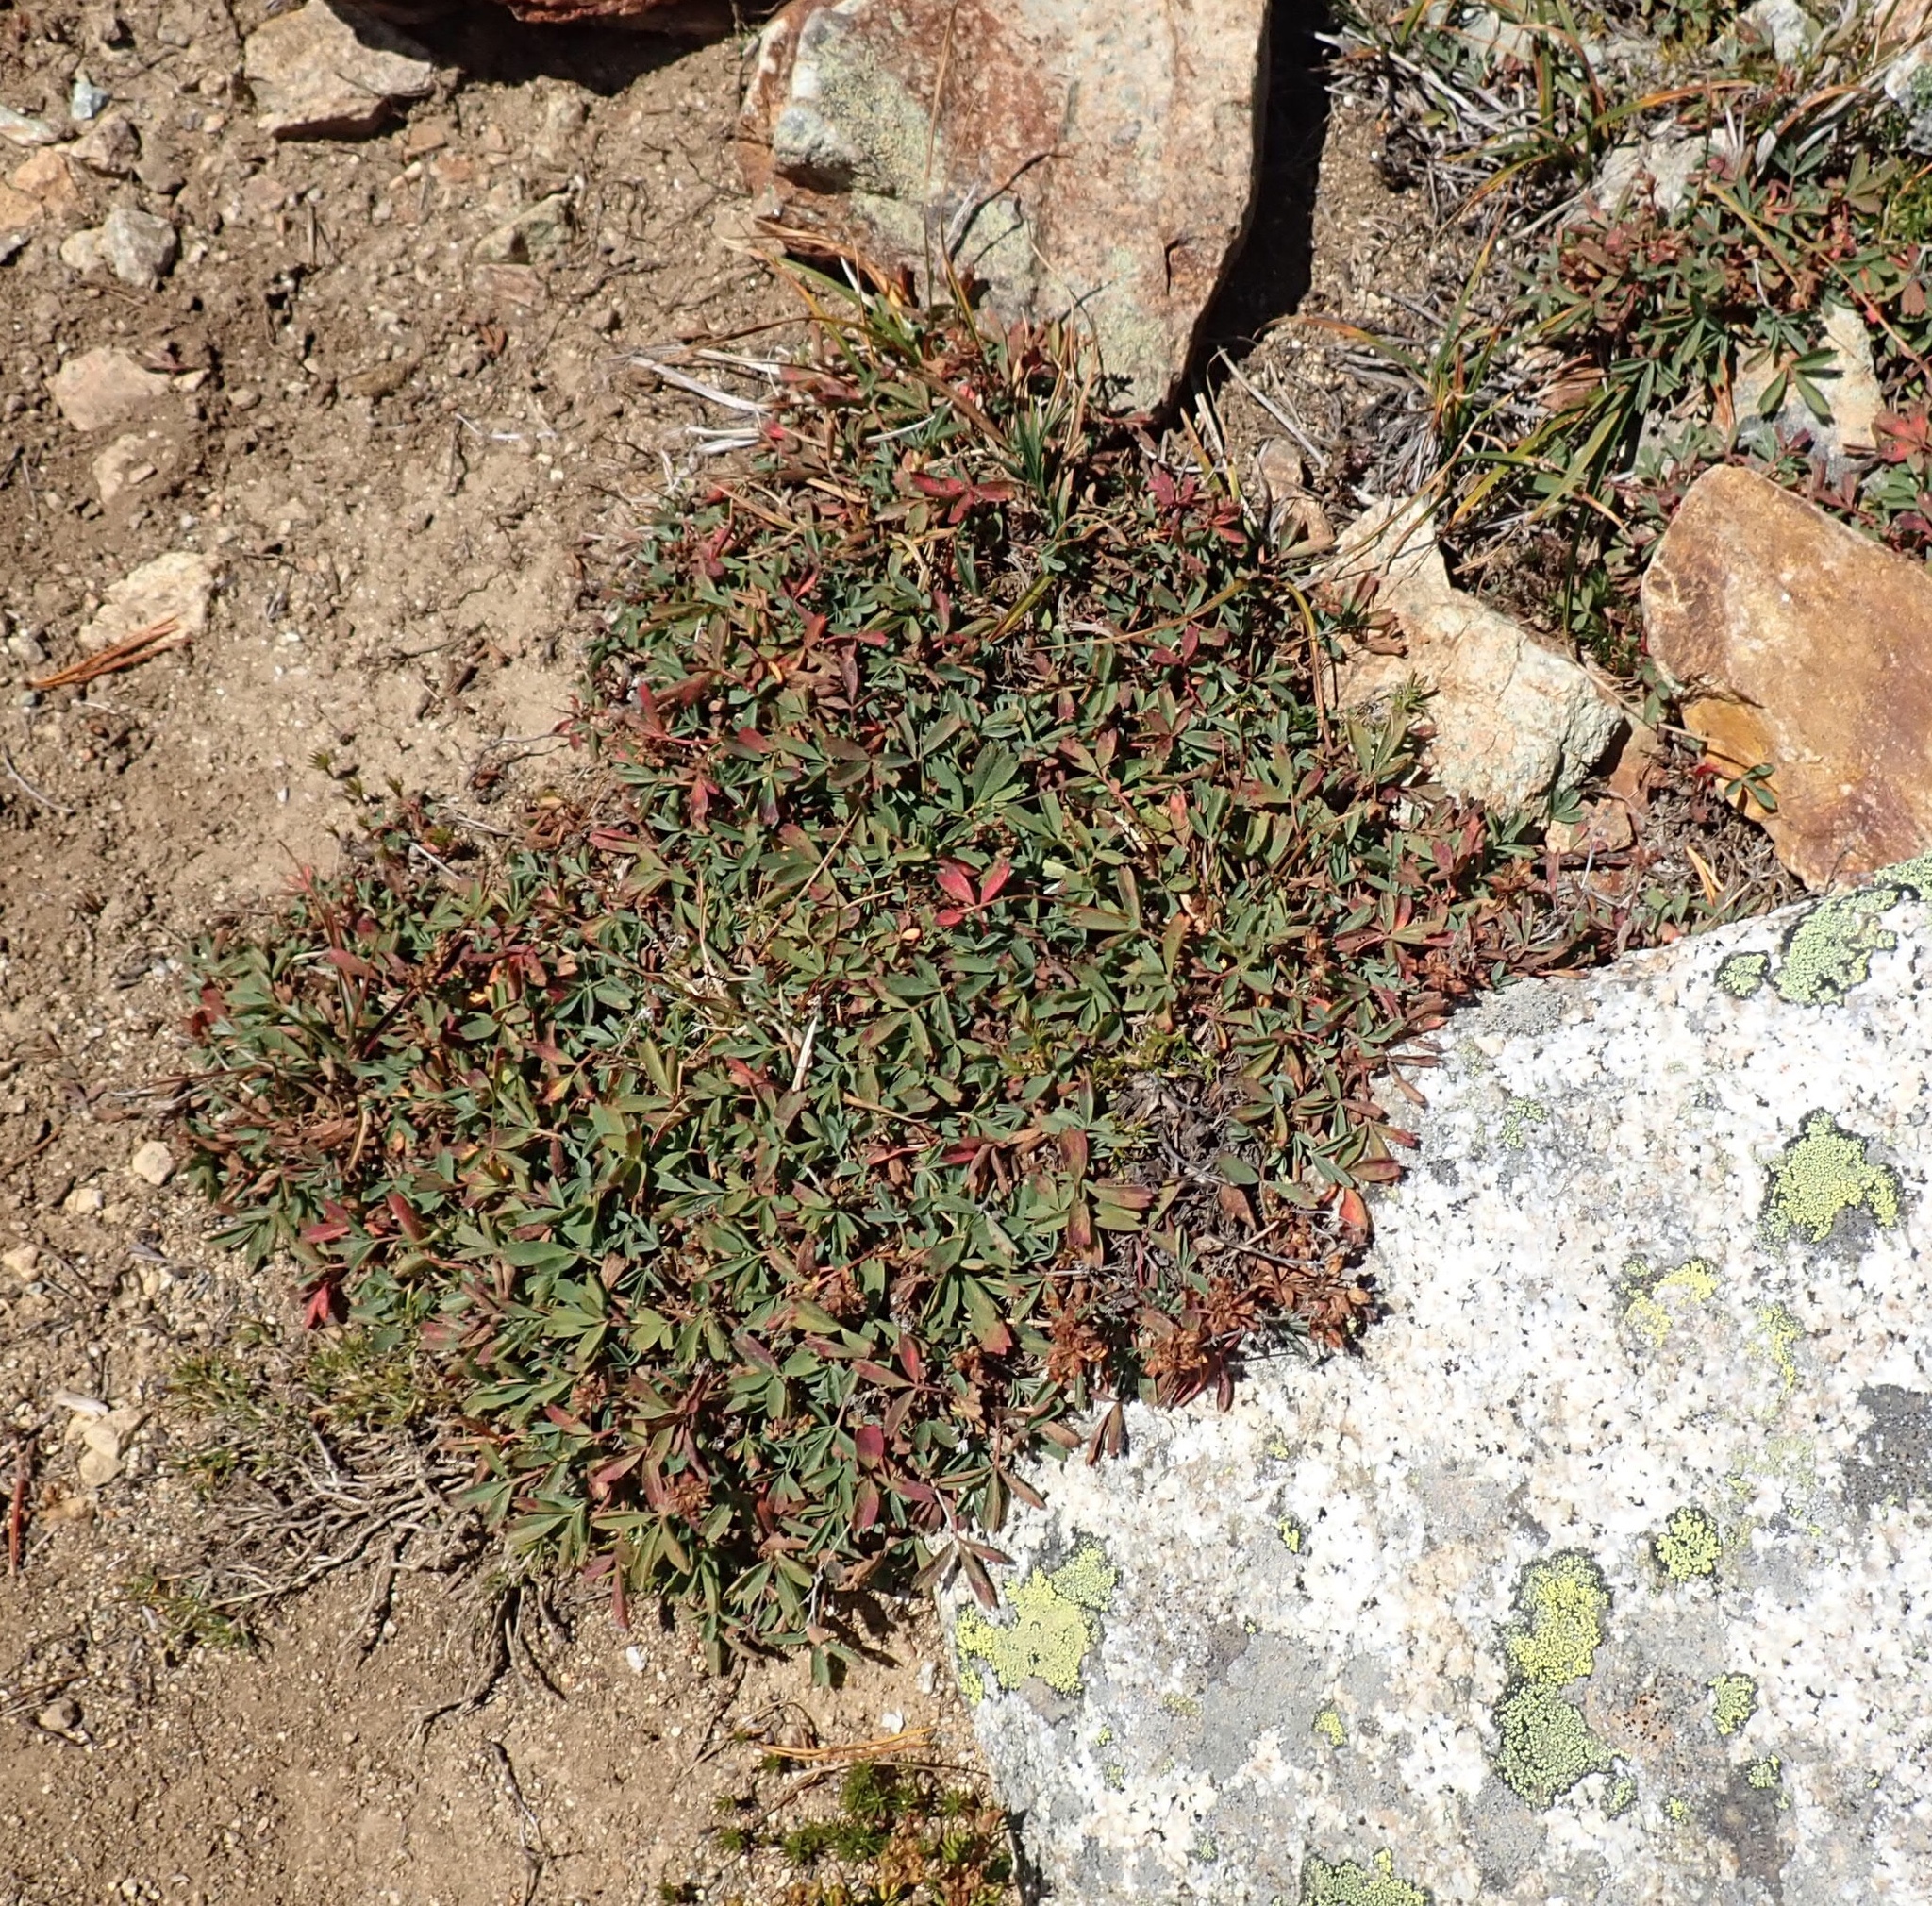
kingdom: Plantae
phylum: Tracheophyta
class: Magnoliopsida
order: Rosales
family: Rosaceae
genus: Sibbaldia
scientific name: Sibbaldia procumbens
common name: Creeping sibbaldia
